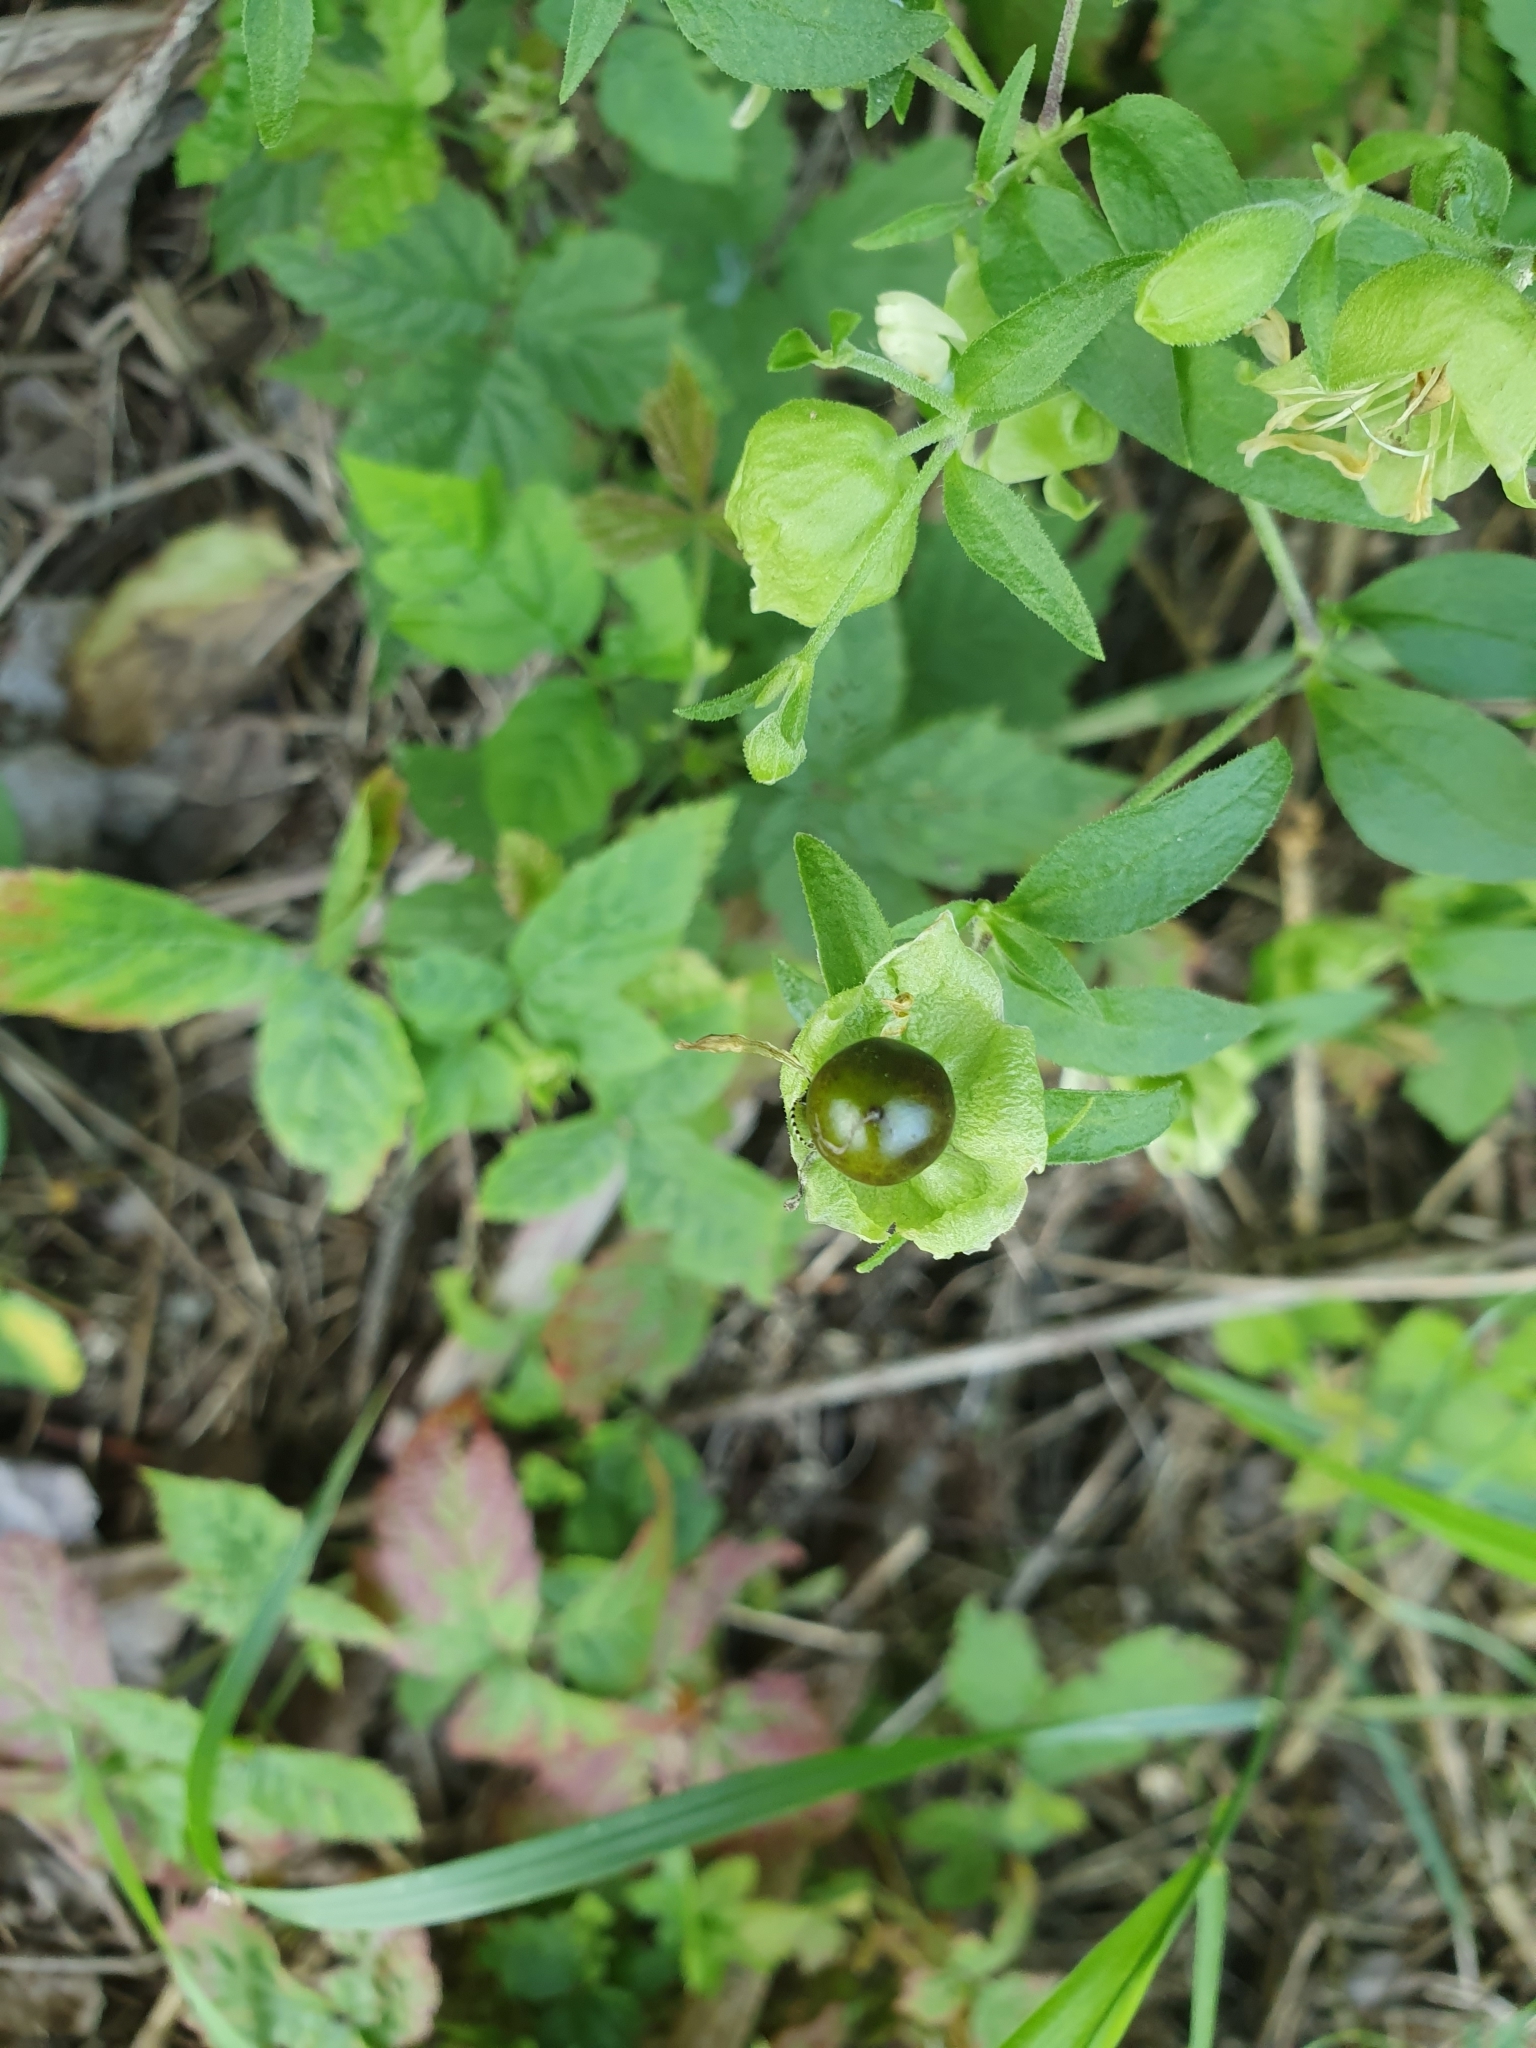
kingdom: Plantae
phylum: Tracheophyta
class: Magnoliopsida
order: Caryophyllales
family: Caryophyllaceae
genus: Silene
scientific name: Silene baccifera
